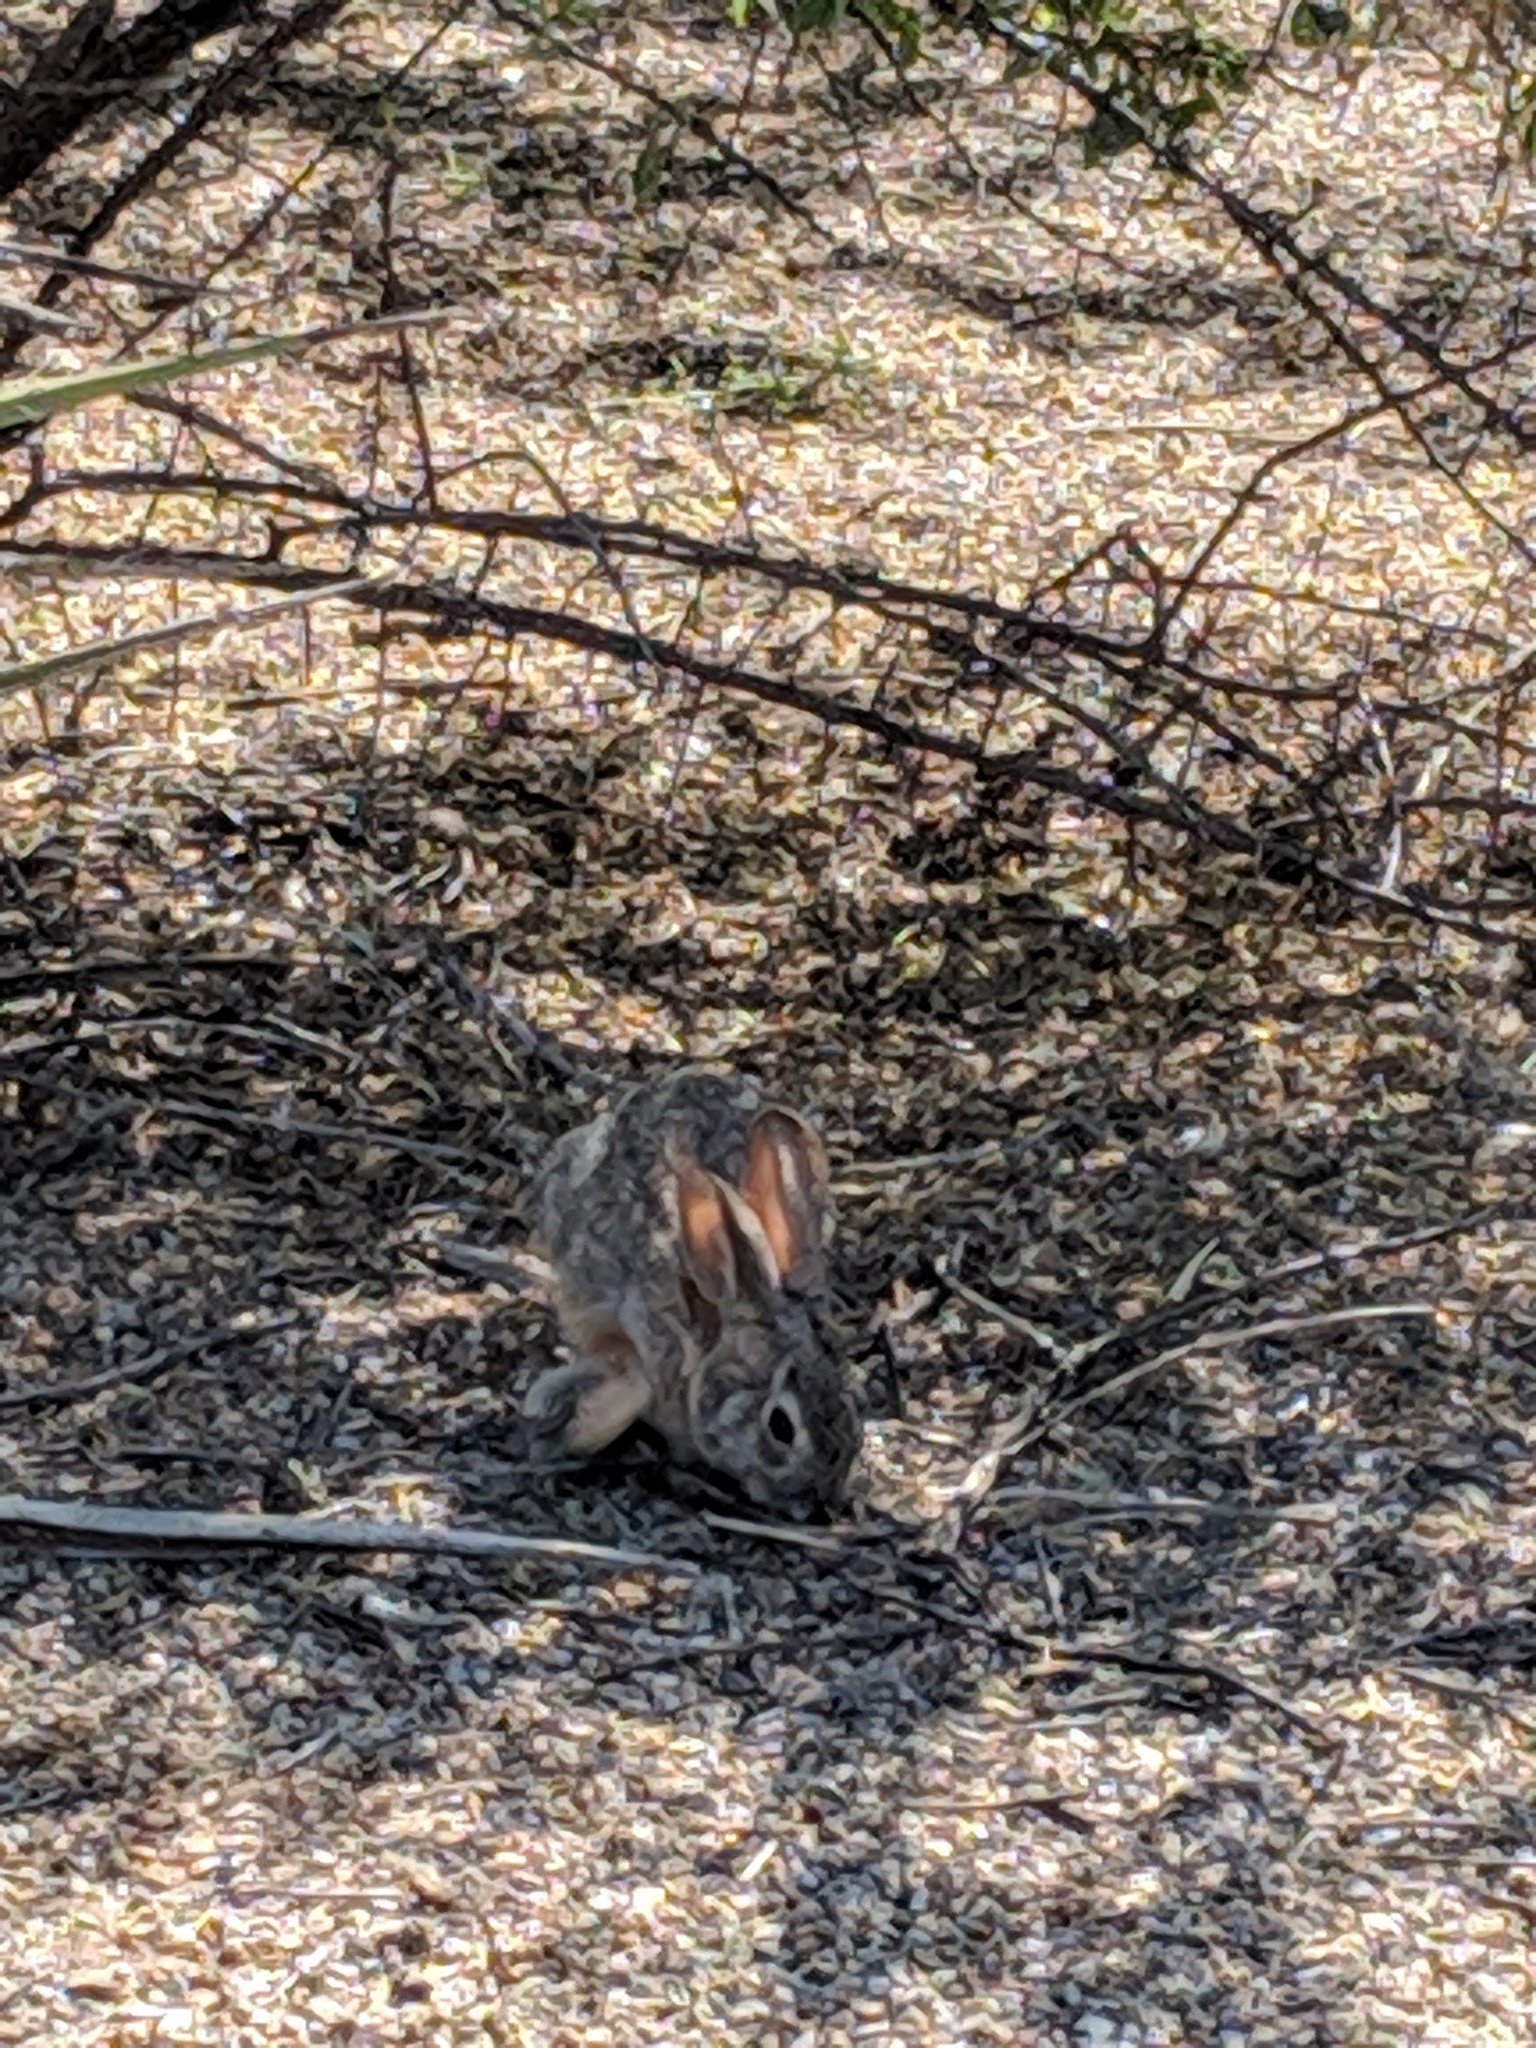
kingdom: Animalia
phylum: Chordata
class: Mammalia
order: Lagomorpha
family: Leporidae
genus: Sylvilagus
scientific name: Sylvilagus audubonii
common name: Desert cottontail
